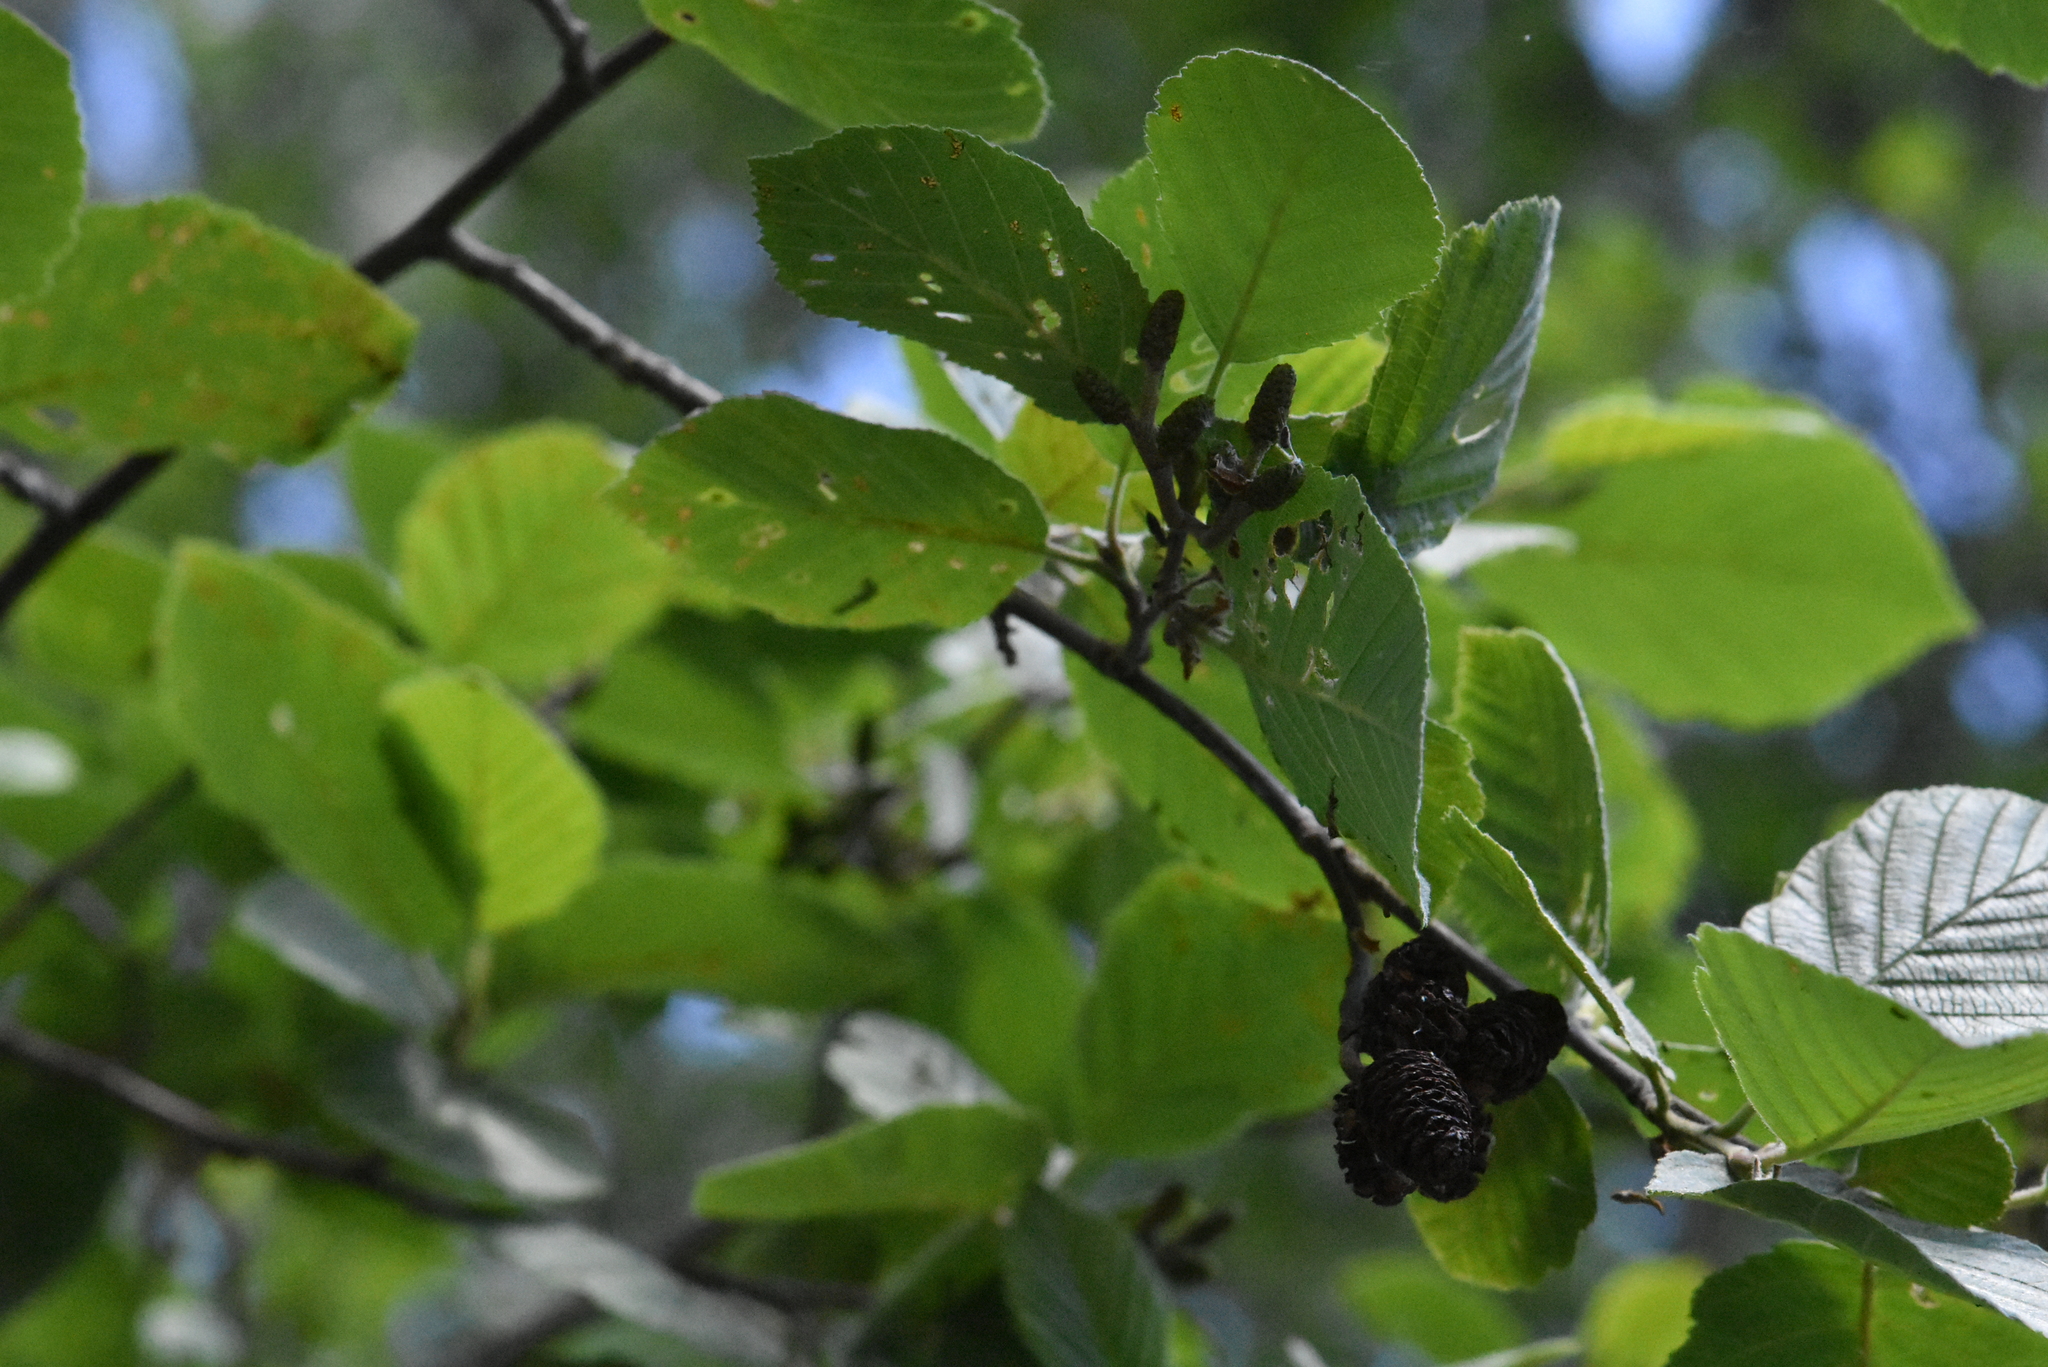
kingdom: Plantae
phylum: Tracheophyta
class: Magnoliopsida
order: Fagales
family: Betulaceae
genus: Alnus
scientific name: Alnus glutinosa
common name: Black alder
